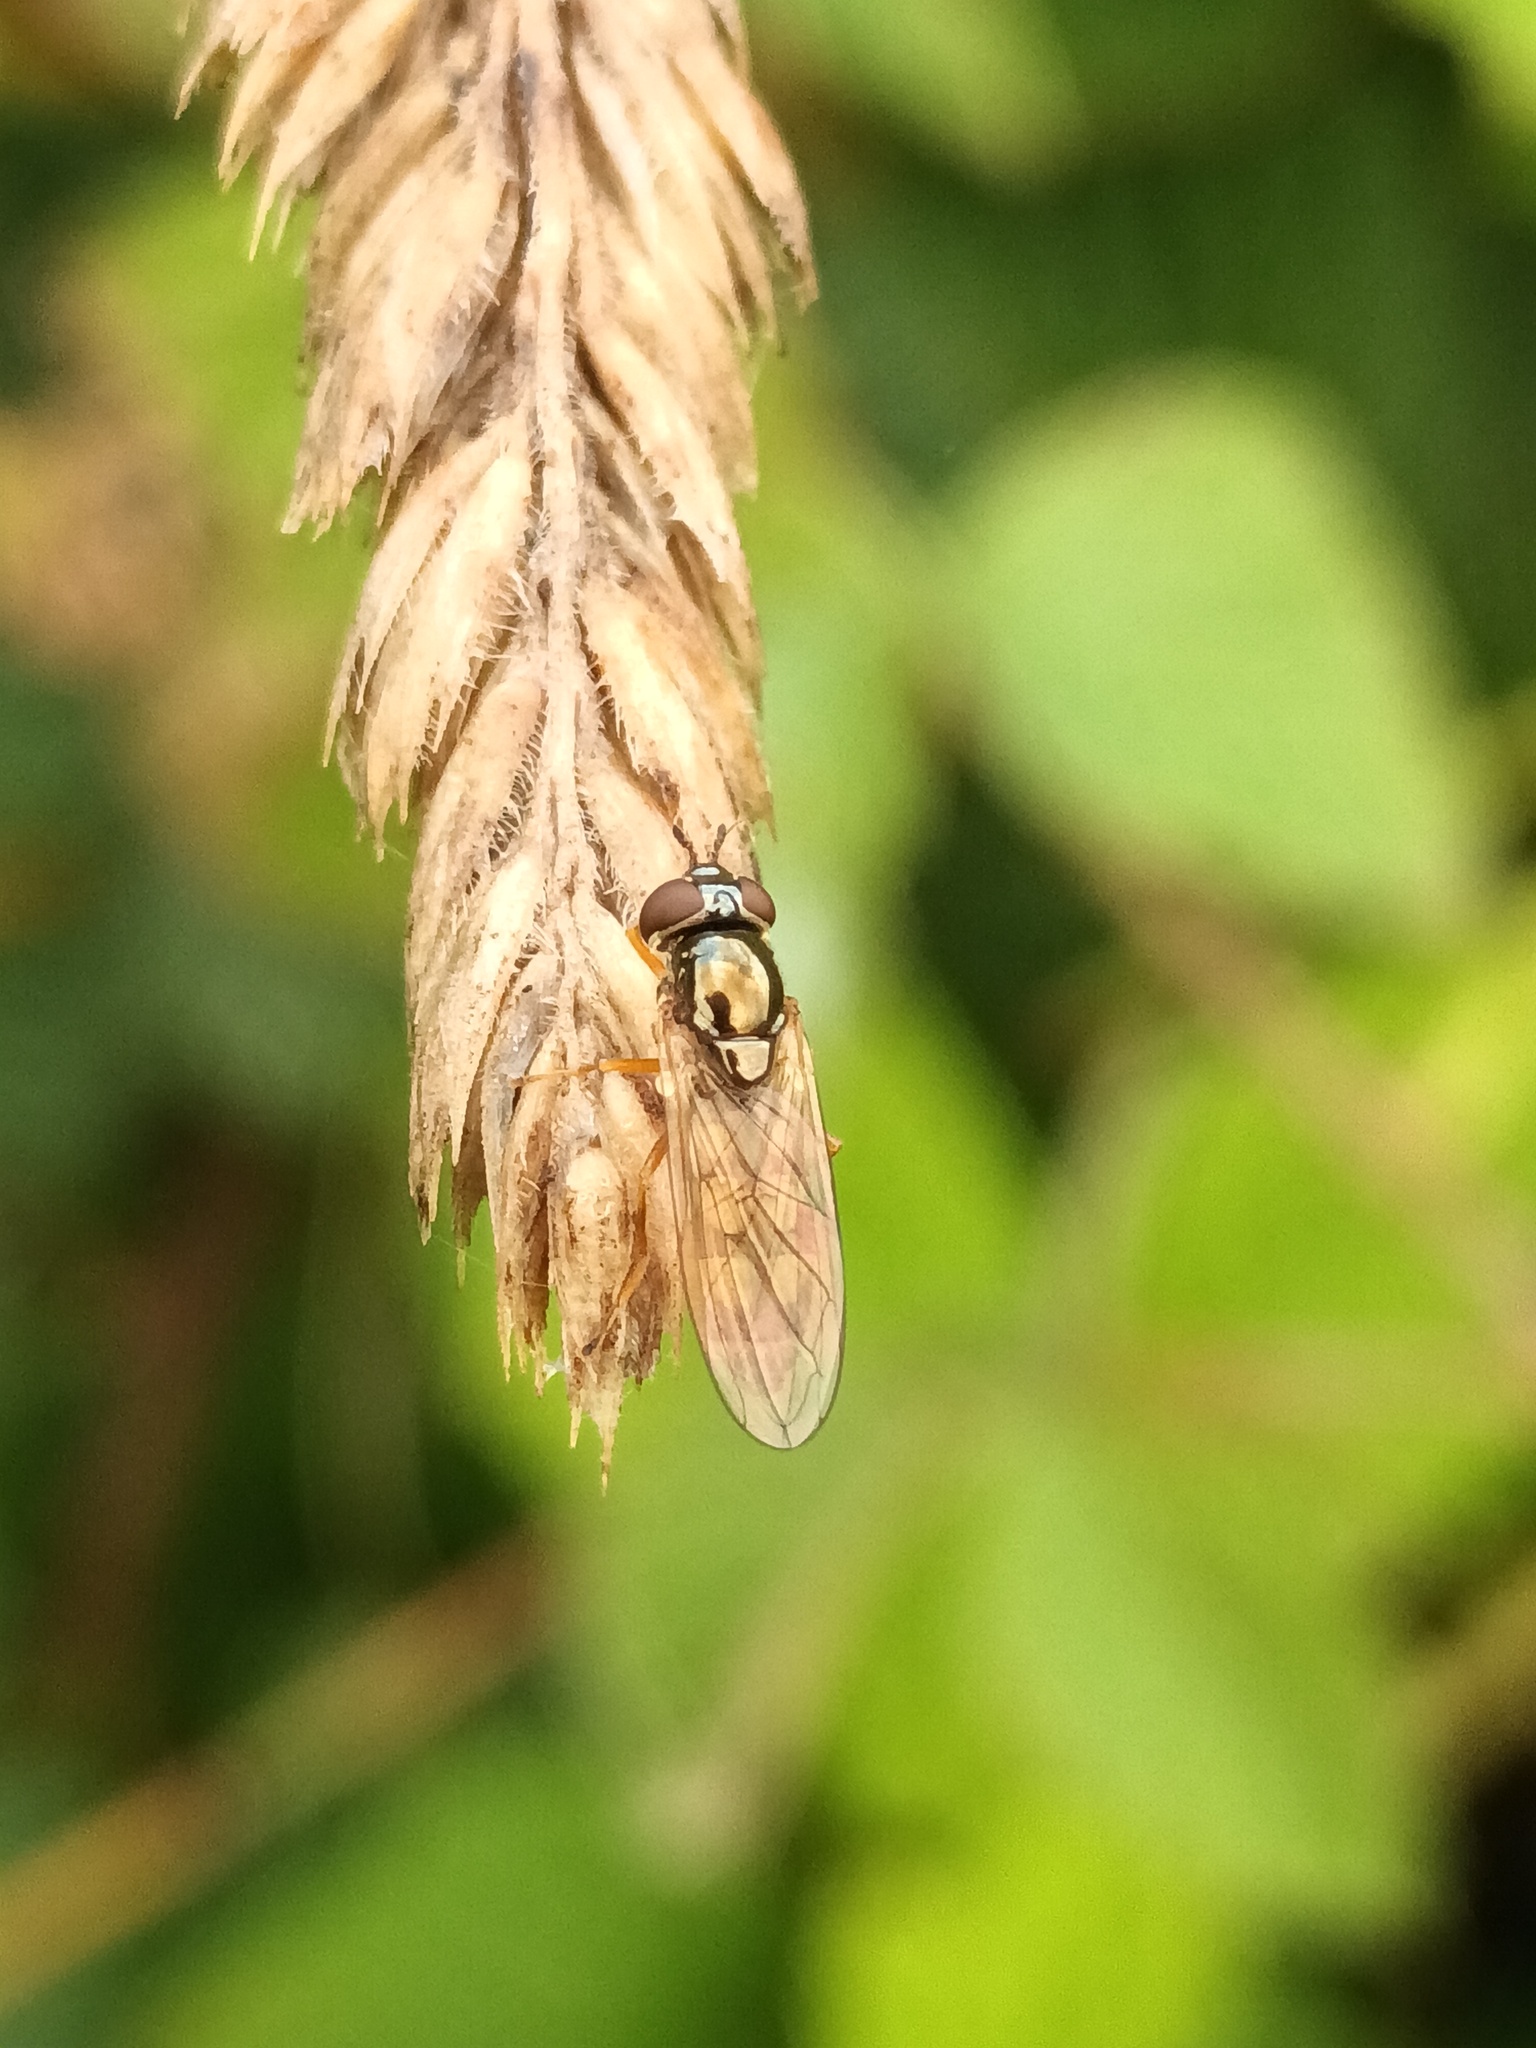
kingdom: Animalia
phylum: Arthropoda
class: Insecta
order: Diptera
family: Syrphidae
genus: Melanostoma
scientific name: Melanostoma mellina
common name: Hover fly
